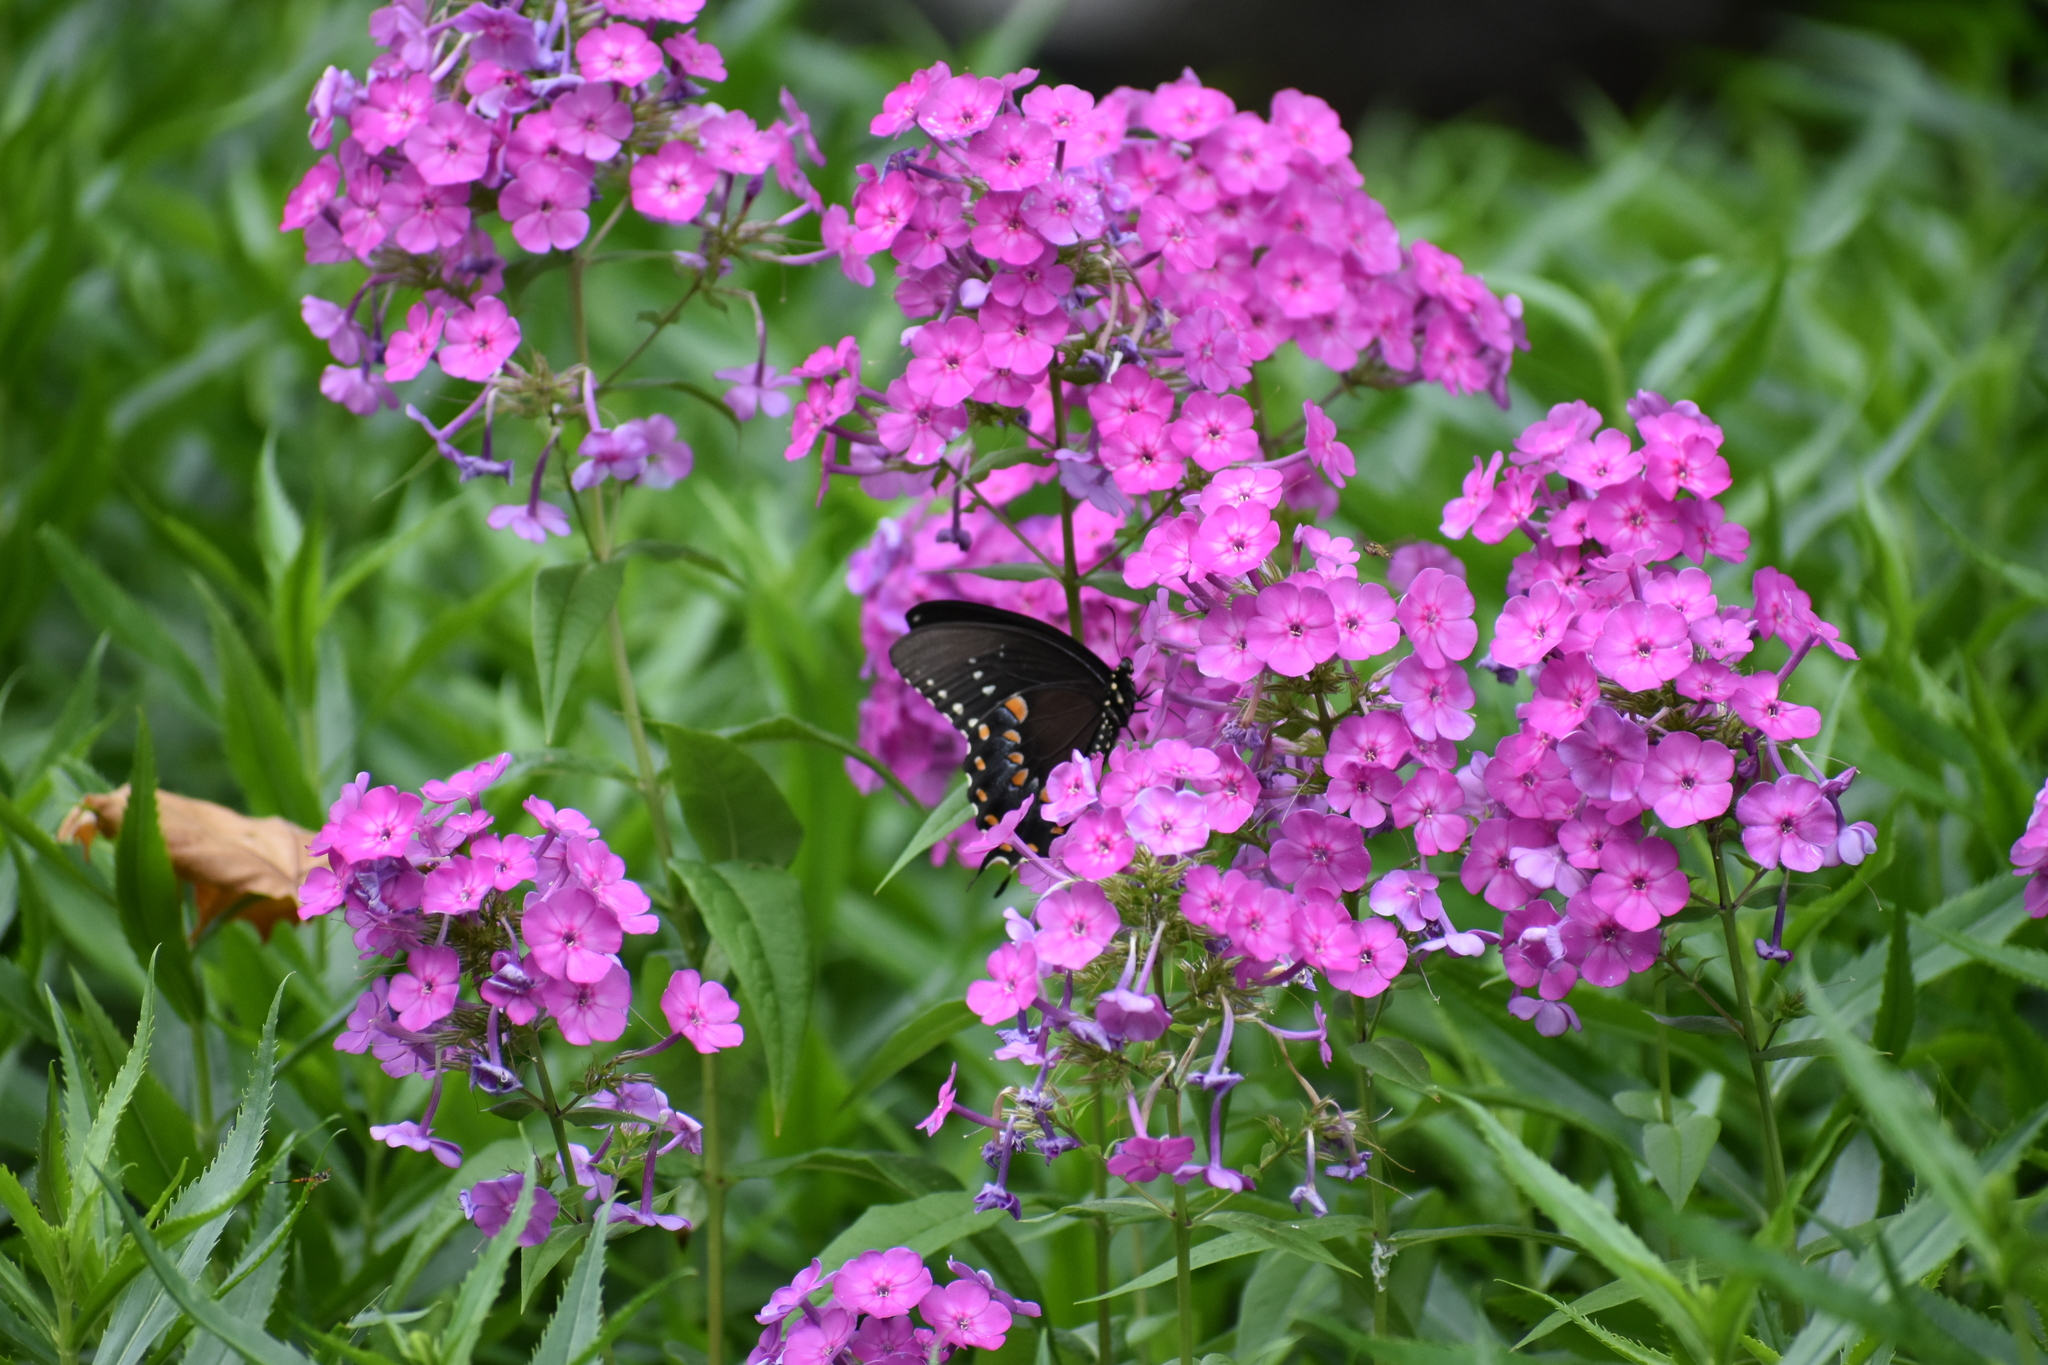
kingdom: Animalia
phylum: Arthropoda
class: Insecta
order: Lepidoptera
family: Papilionidae
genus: Papilio
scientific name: Papilio troilus
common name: Spicebush swallowtail
